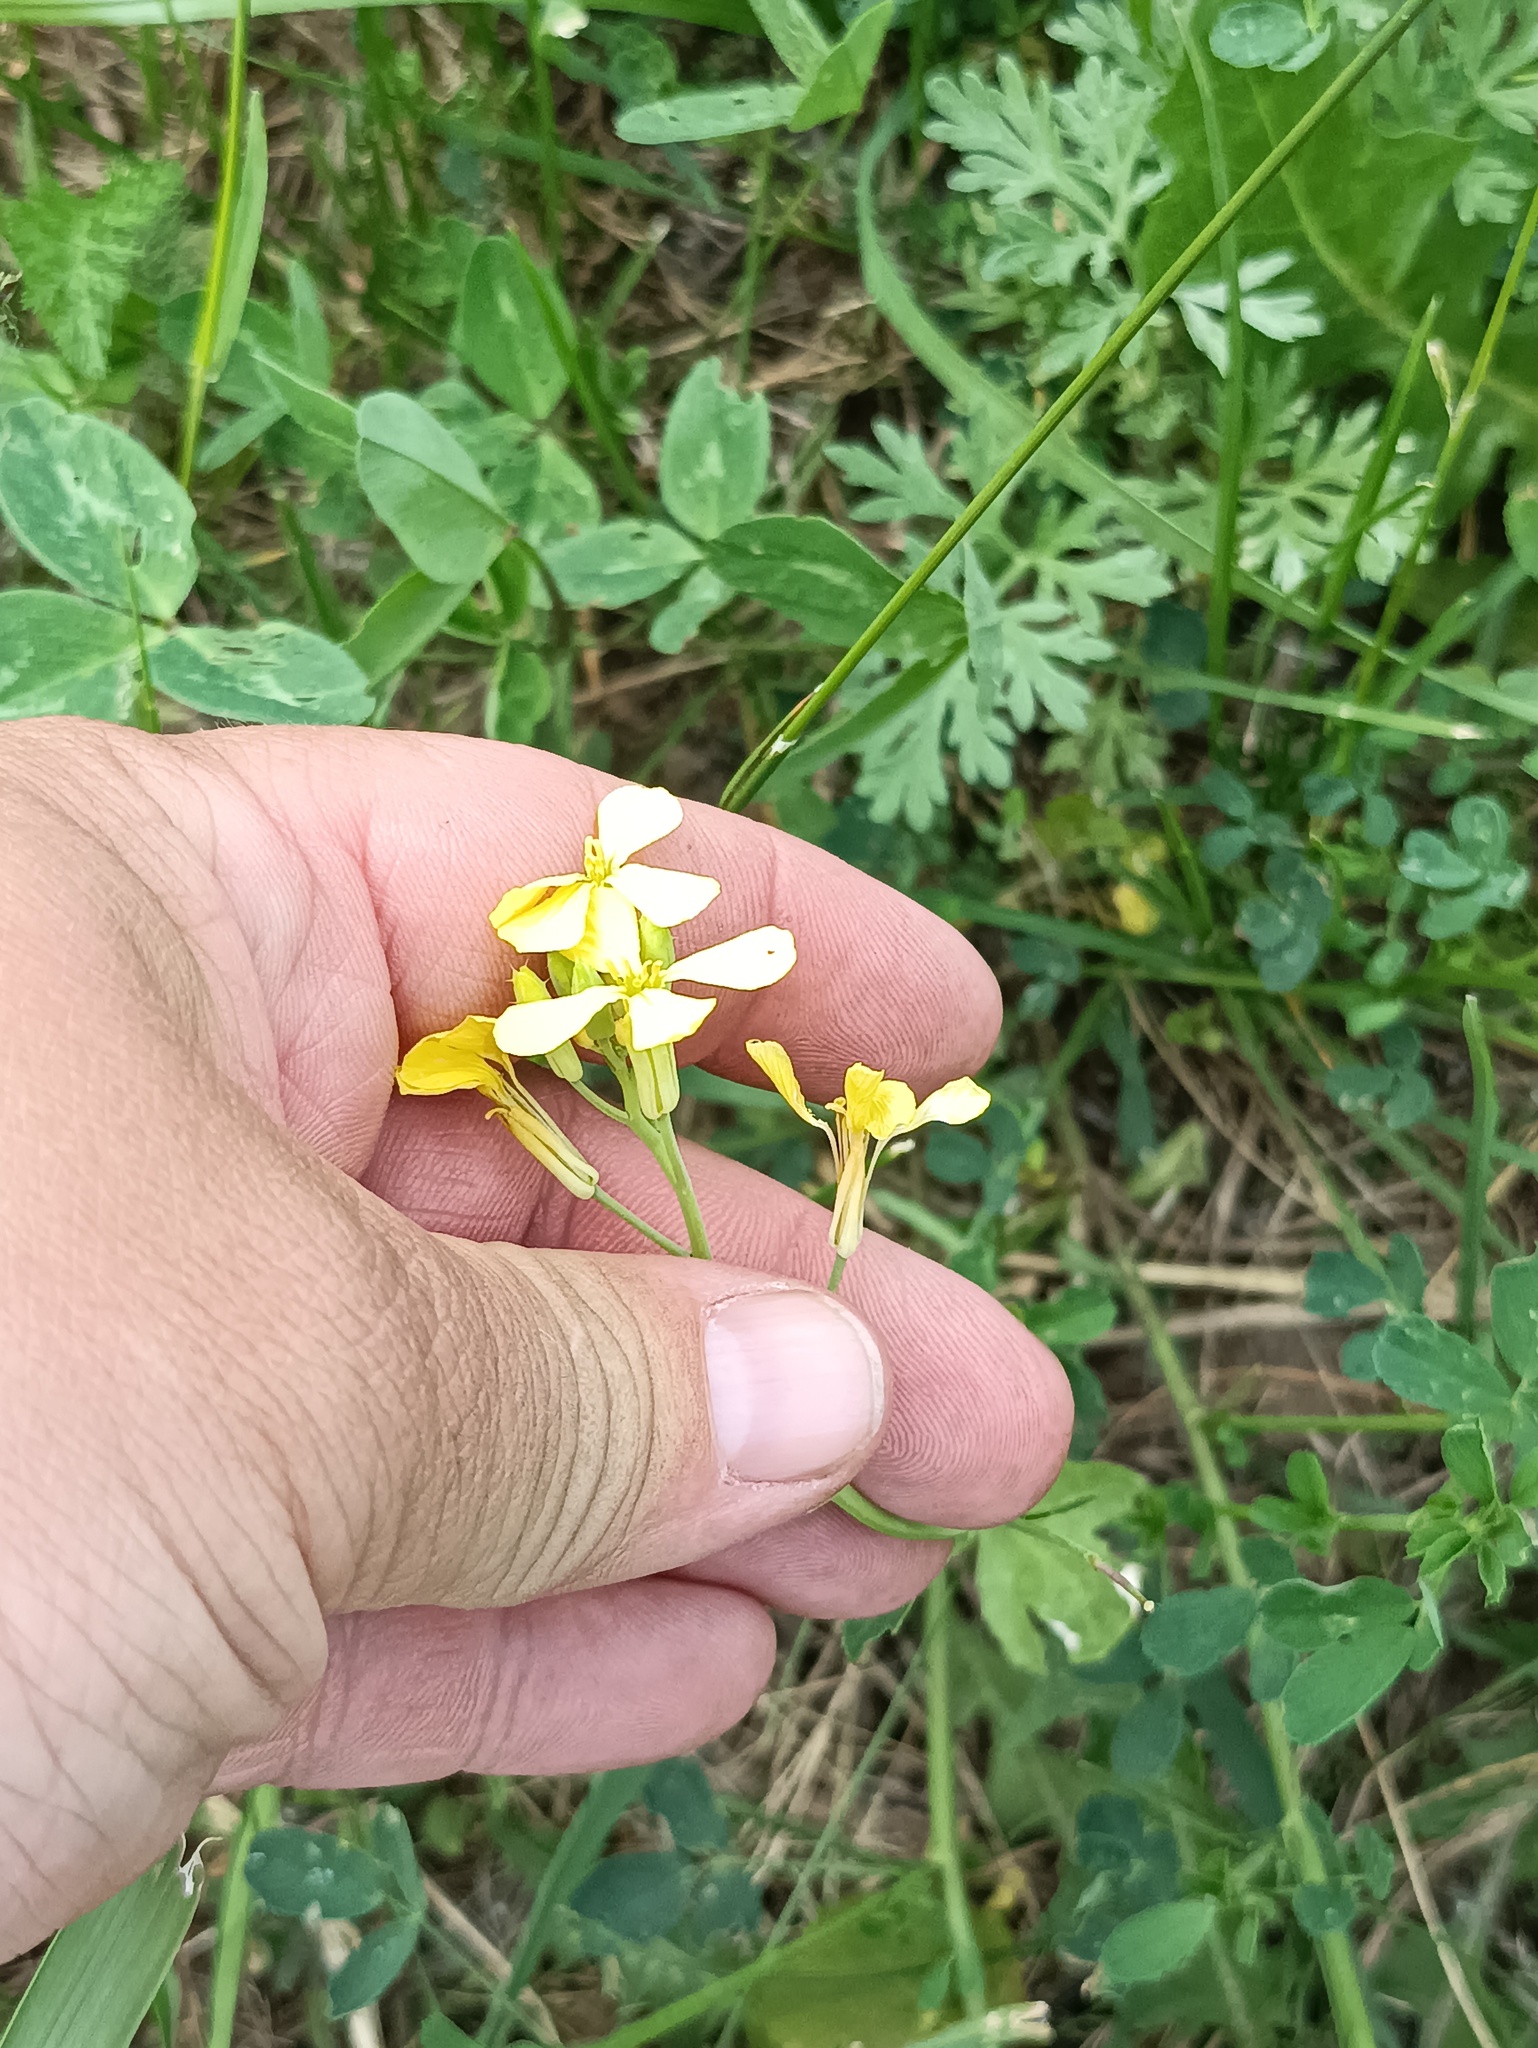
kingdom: Plantae
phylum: Tracheophyta
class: Magnoliopsida
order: Brassicales
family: Brassicaceae
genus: Raphanus
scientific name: Raphanus raphanistrum
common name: Wild radish
